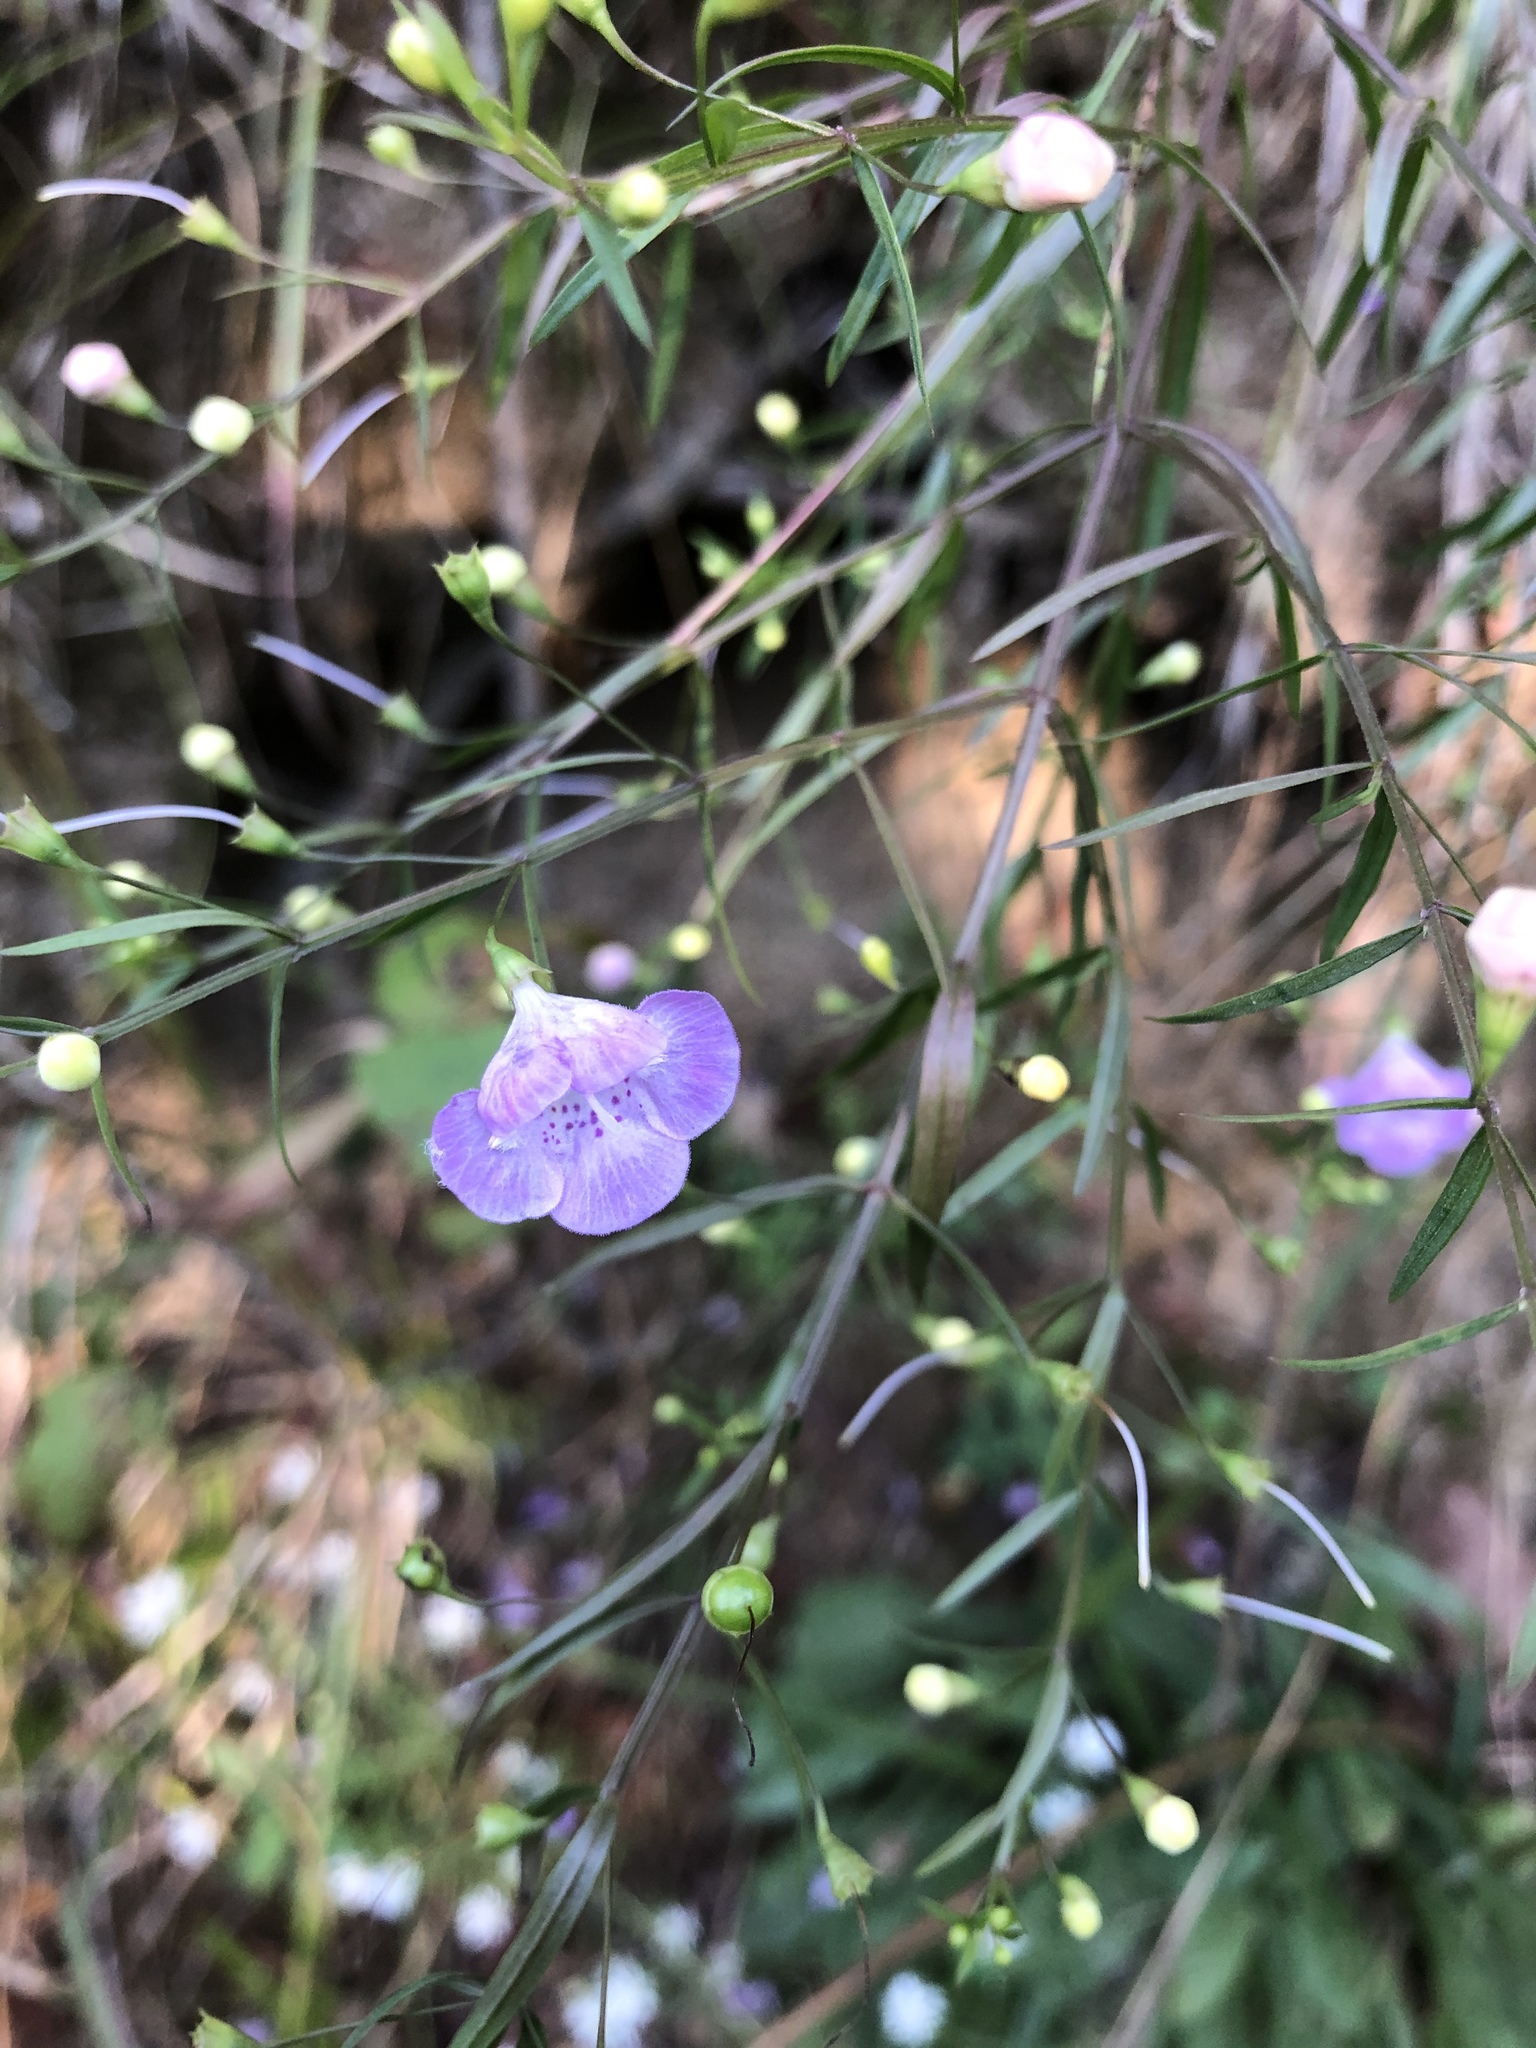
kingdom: Plantae
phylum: Tracheophyta
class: Magnoliopsida
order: Lamiales
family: Orobanchaceae
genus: Agalinis
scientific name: Agalinis tenuifolia
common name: Slender agalinis
